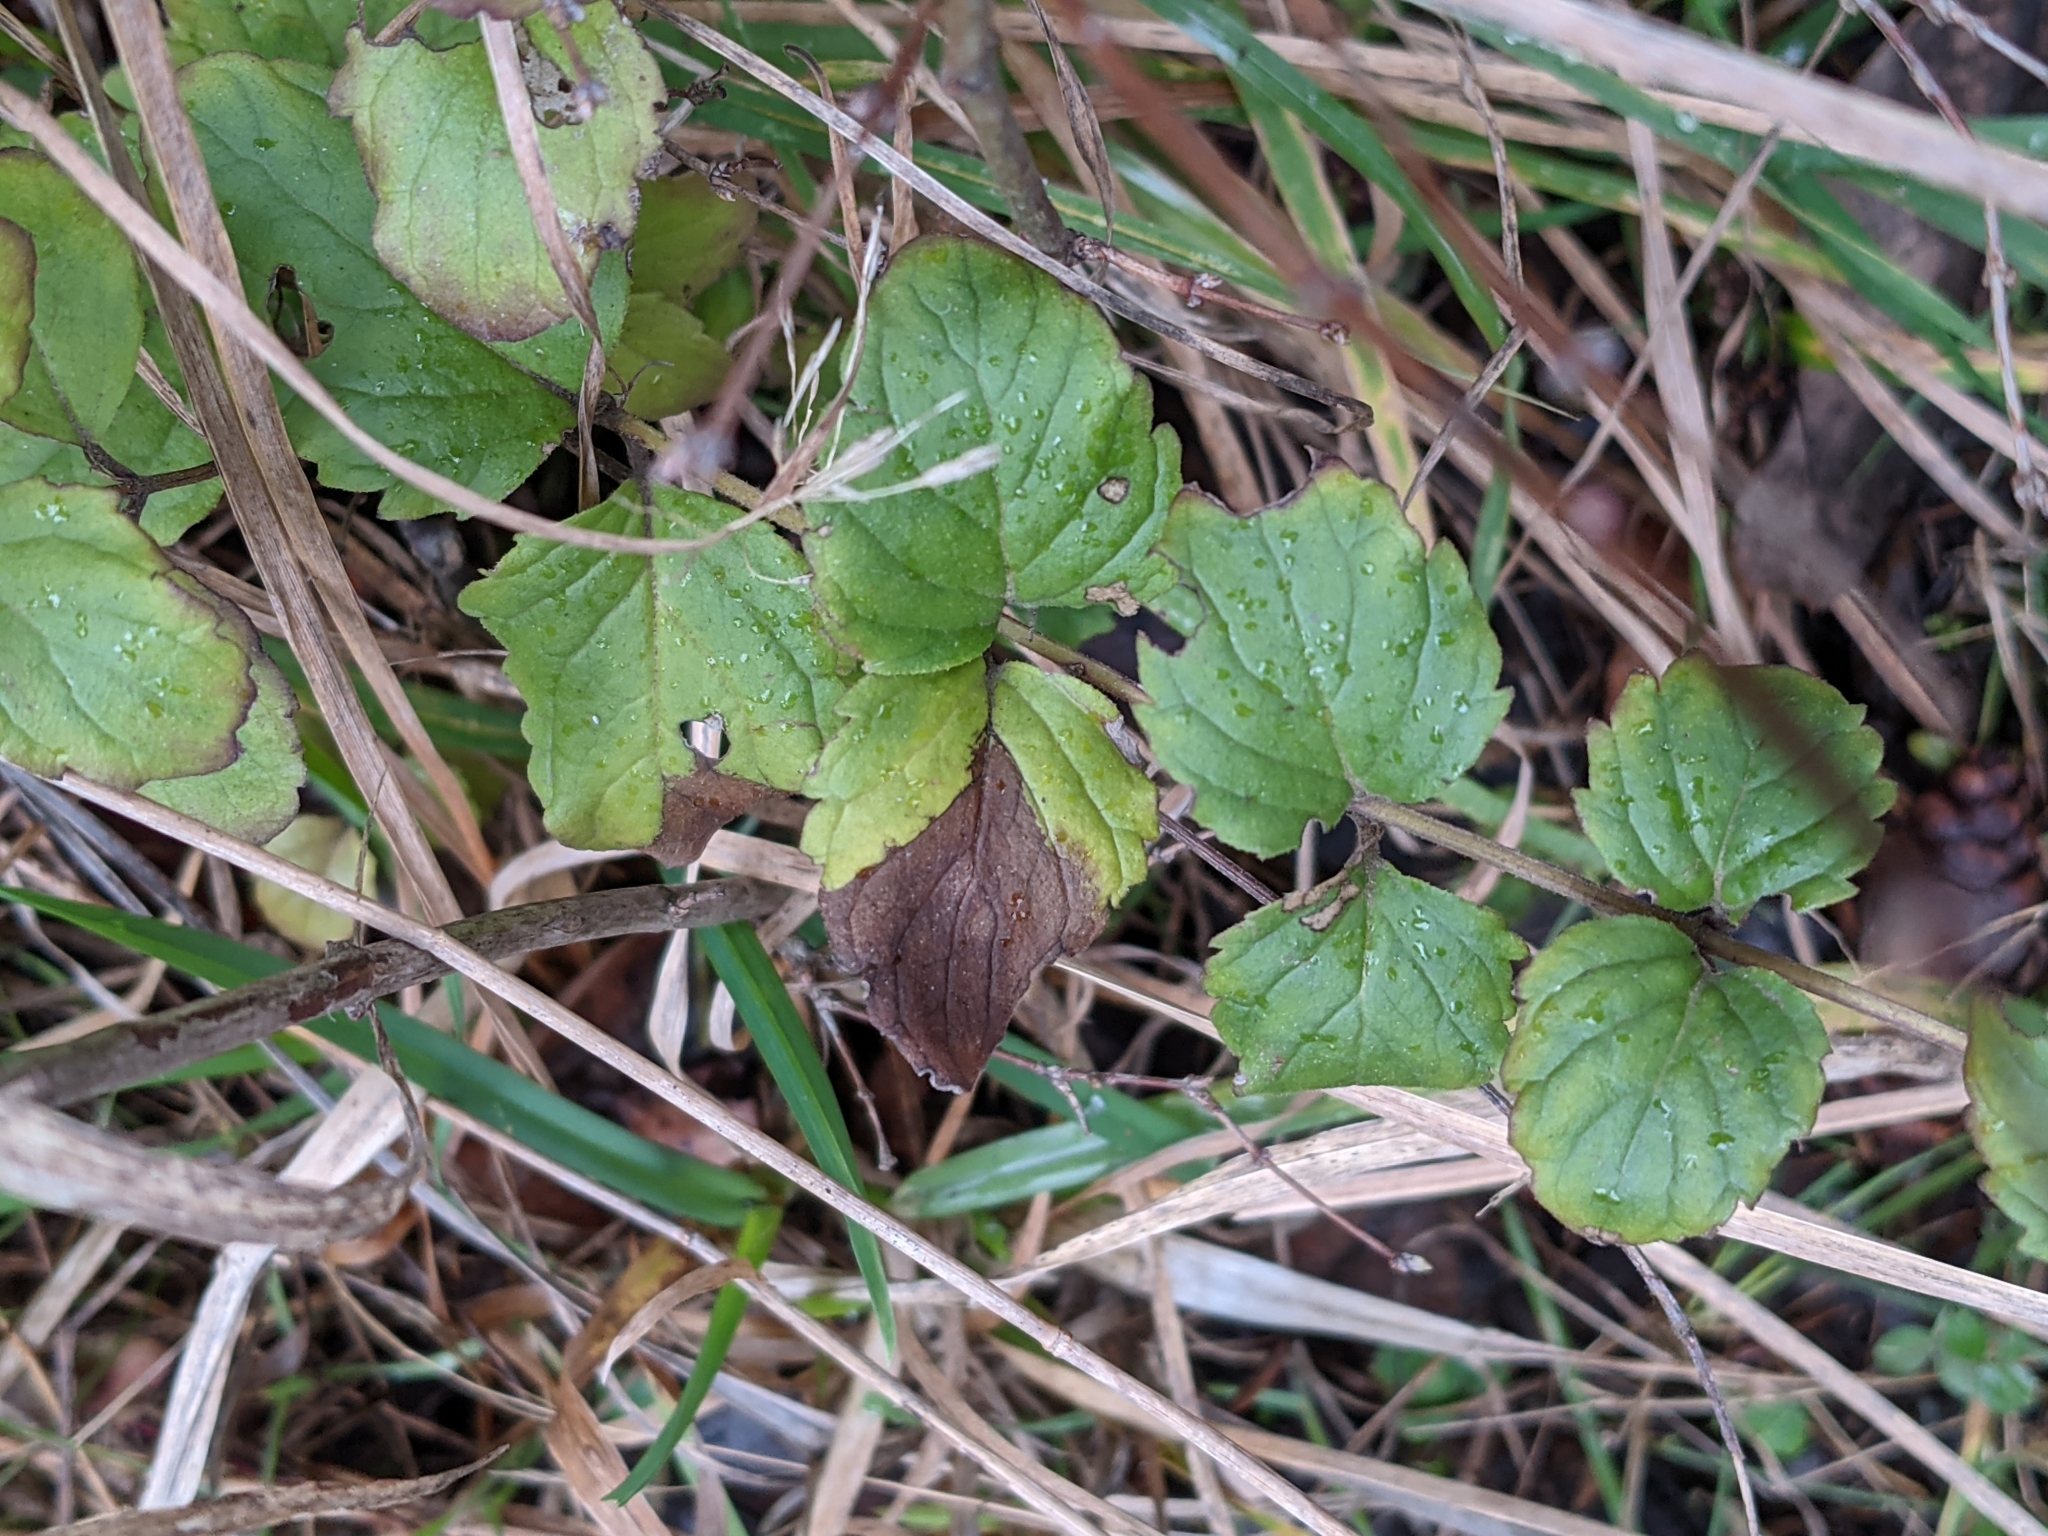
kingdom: Plantae
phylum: Tracheophyta
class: Magnoliopsida
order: Lamiales
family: Lamiaceae
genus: Micromeria
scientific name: Micromeria douglasii
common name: Yerba buena
